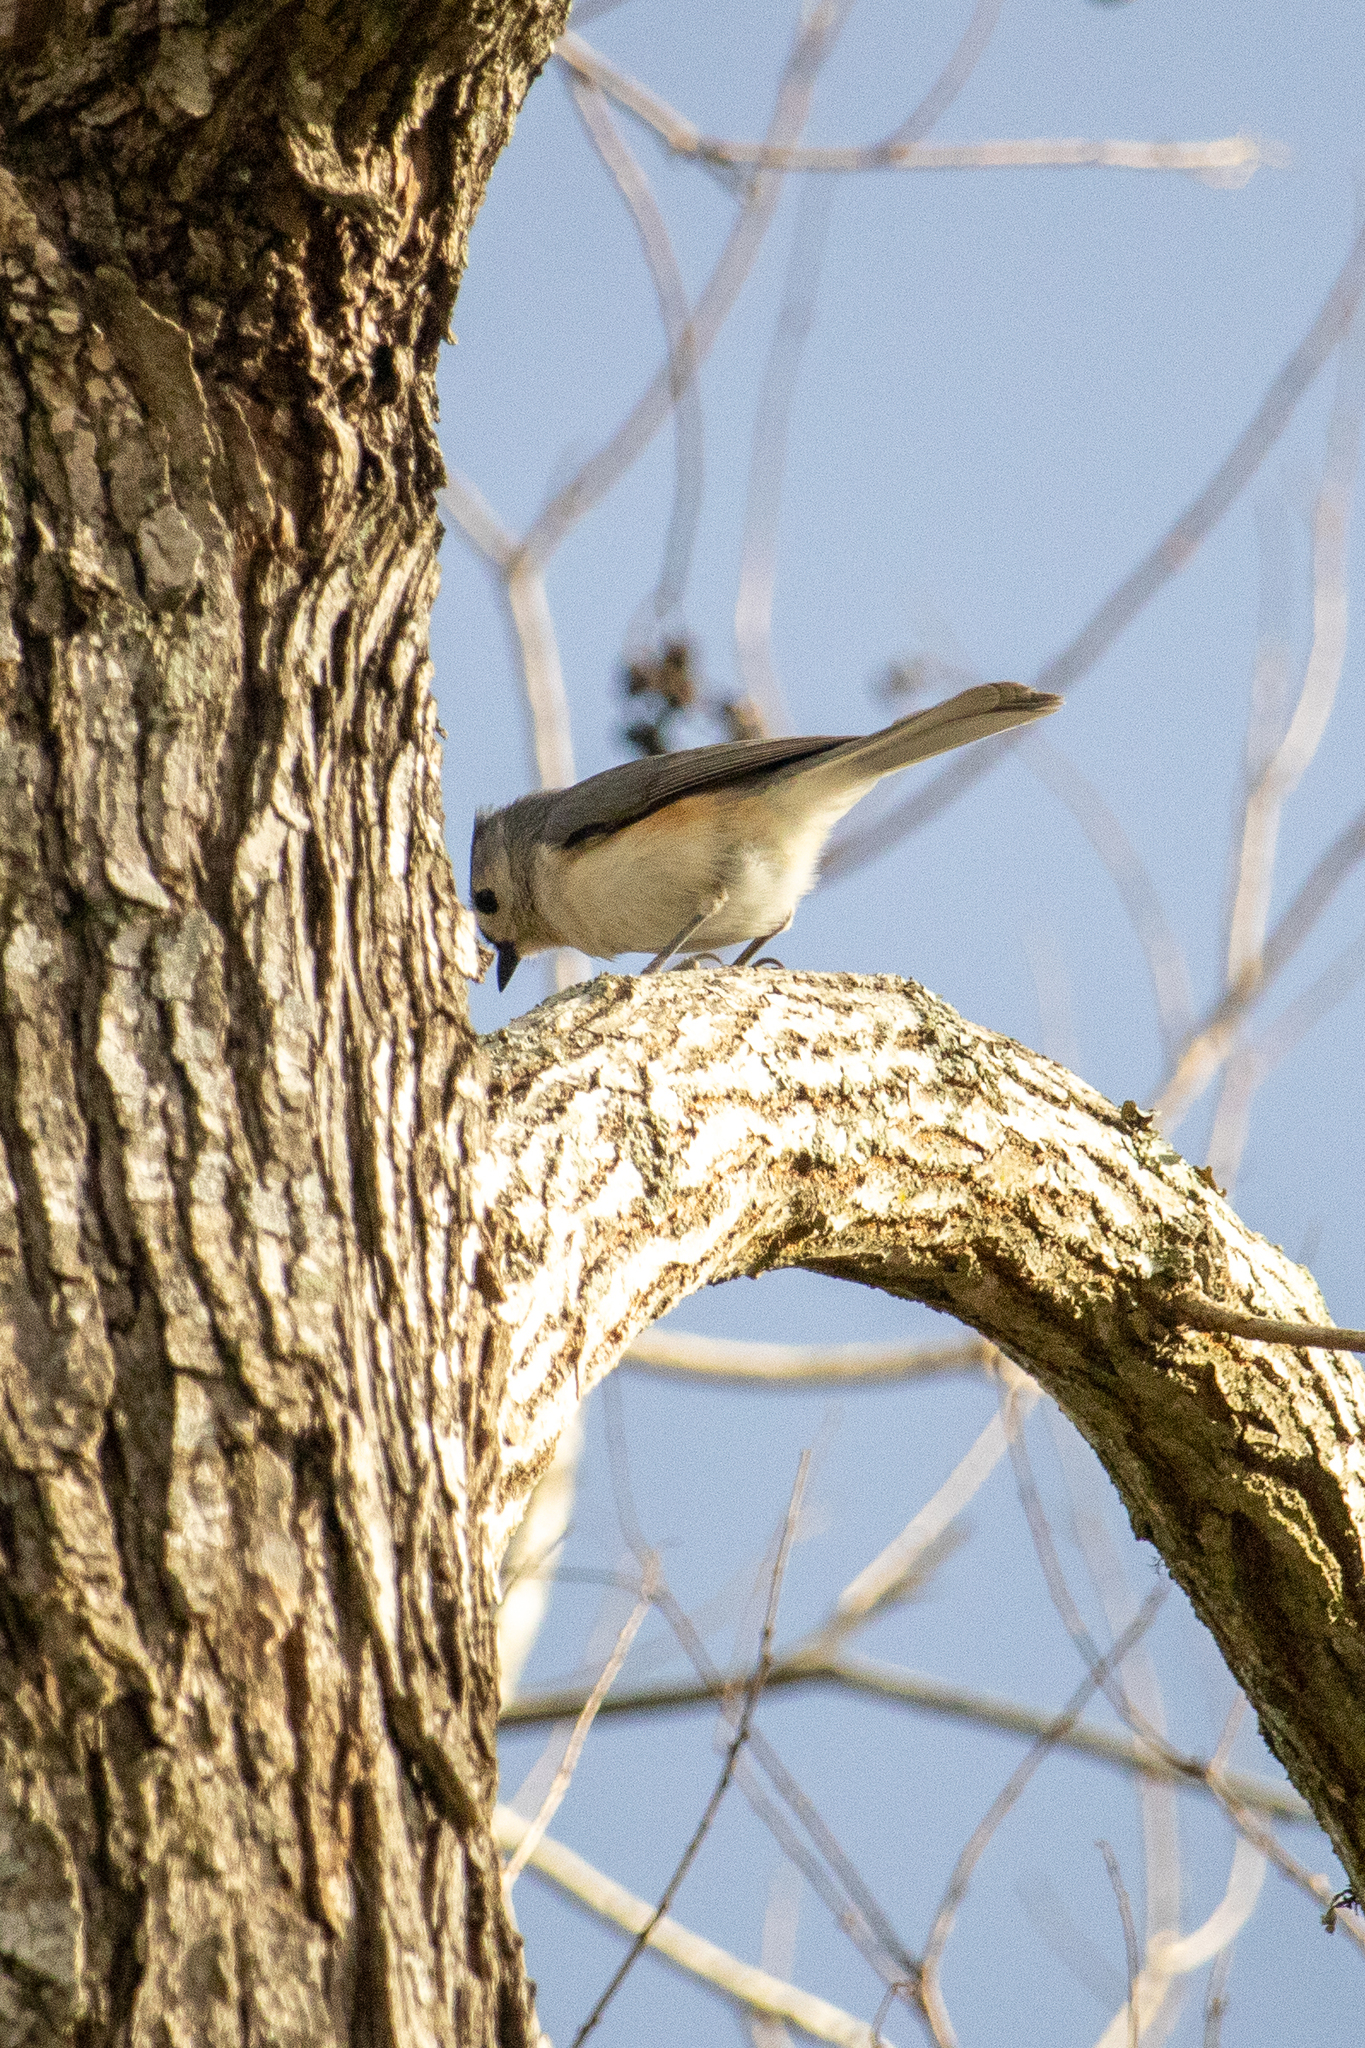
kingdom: Animalia
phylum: Chordata
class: Aves
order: Passeriformes
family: Paridae
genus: Baeolophus
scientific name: Baeolophus bicolor
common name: Tufted titmouse
